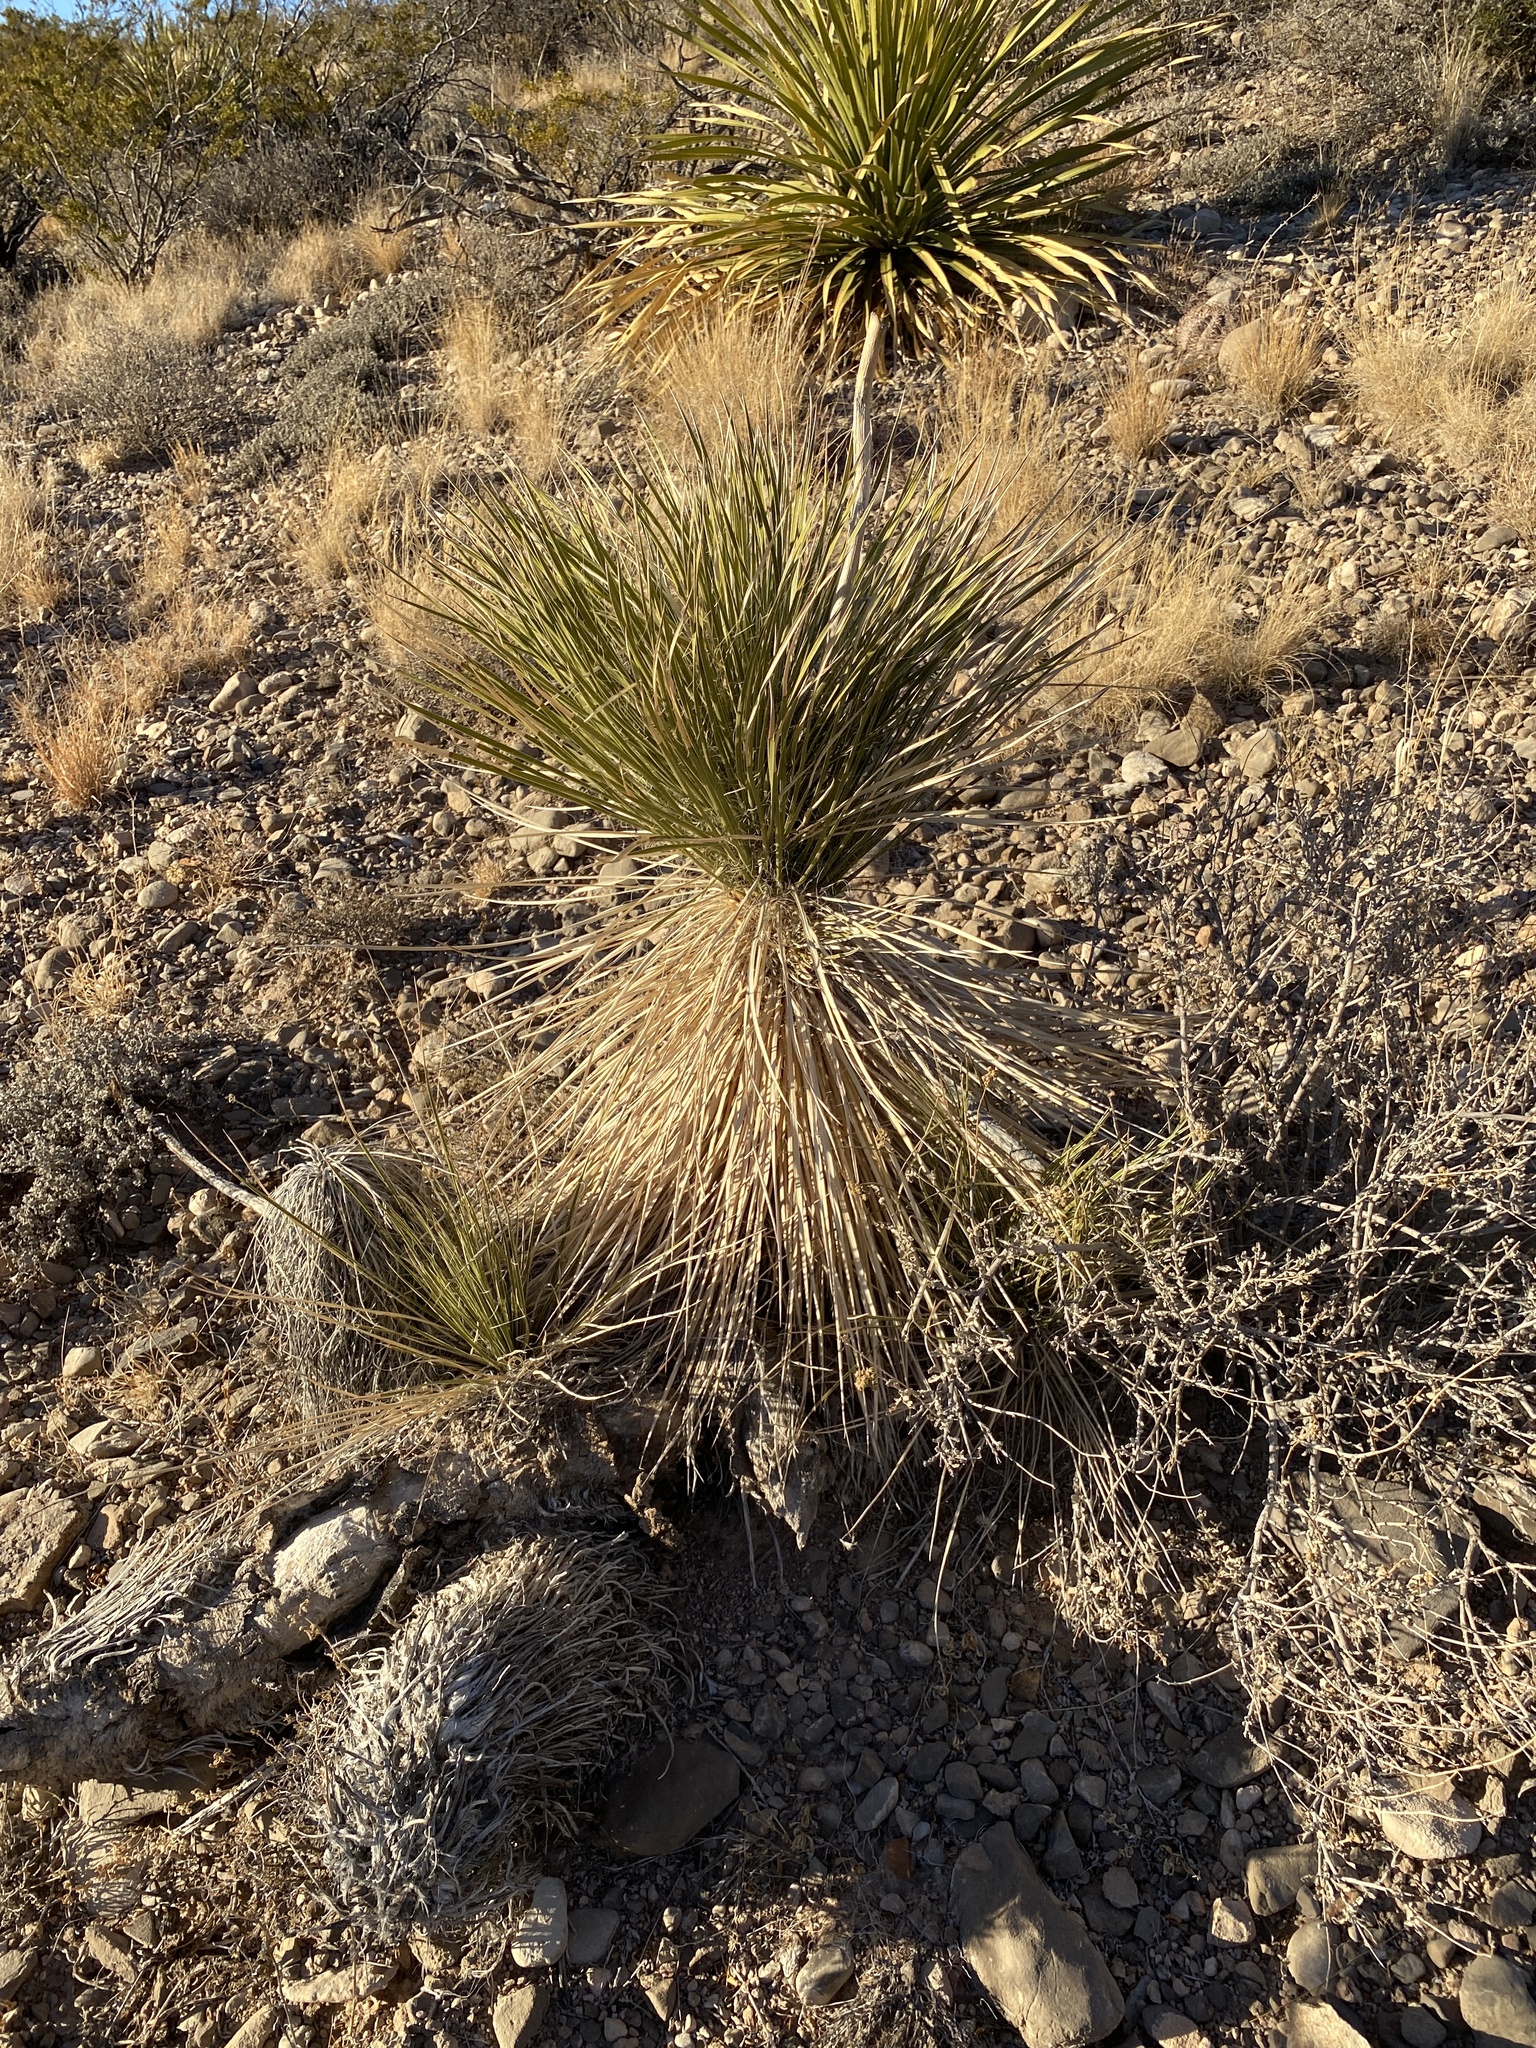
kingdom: Plantae
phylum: Tracheophyta
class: Liliopsida
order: Asparagales
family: Asparagaceae
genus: Yucca
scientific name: Yucca elata
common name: Palmella
